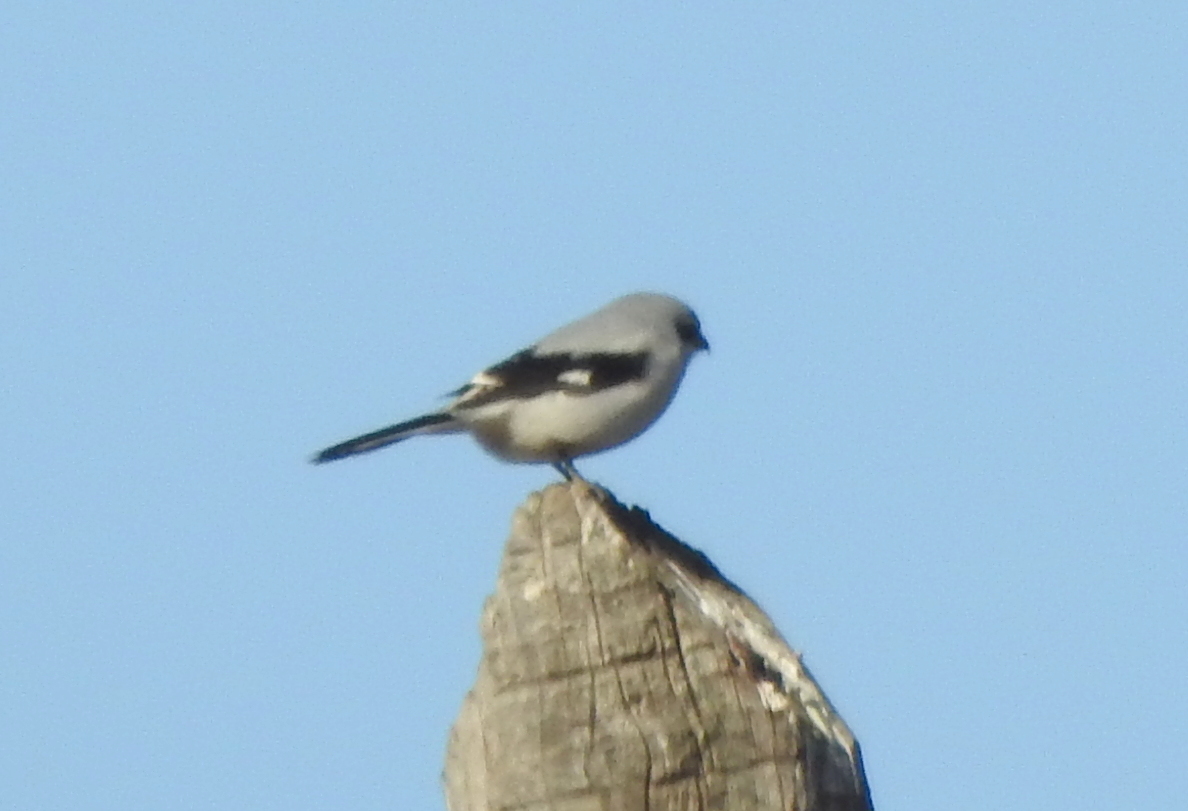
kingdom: Animalia
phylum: Chordata
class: Aves
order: Passeriformes
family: Laniidae
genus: Lanius
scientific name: Lanius borealis
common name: Northern shrike
